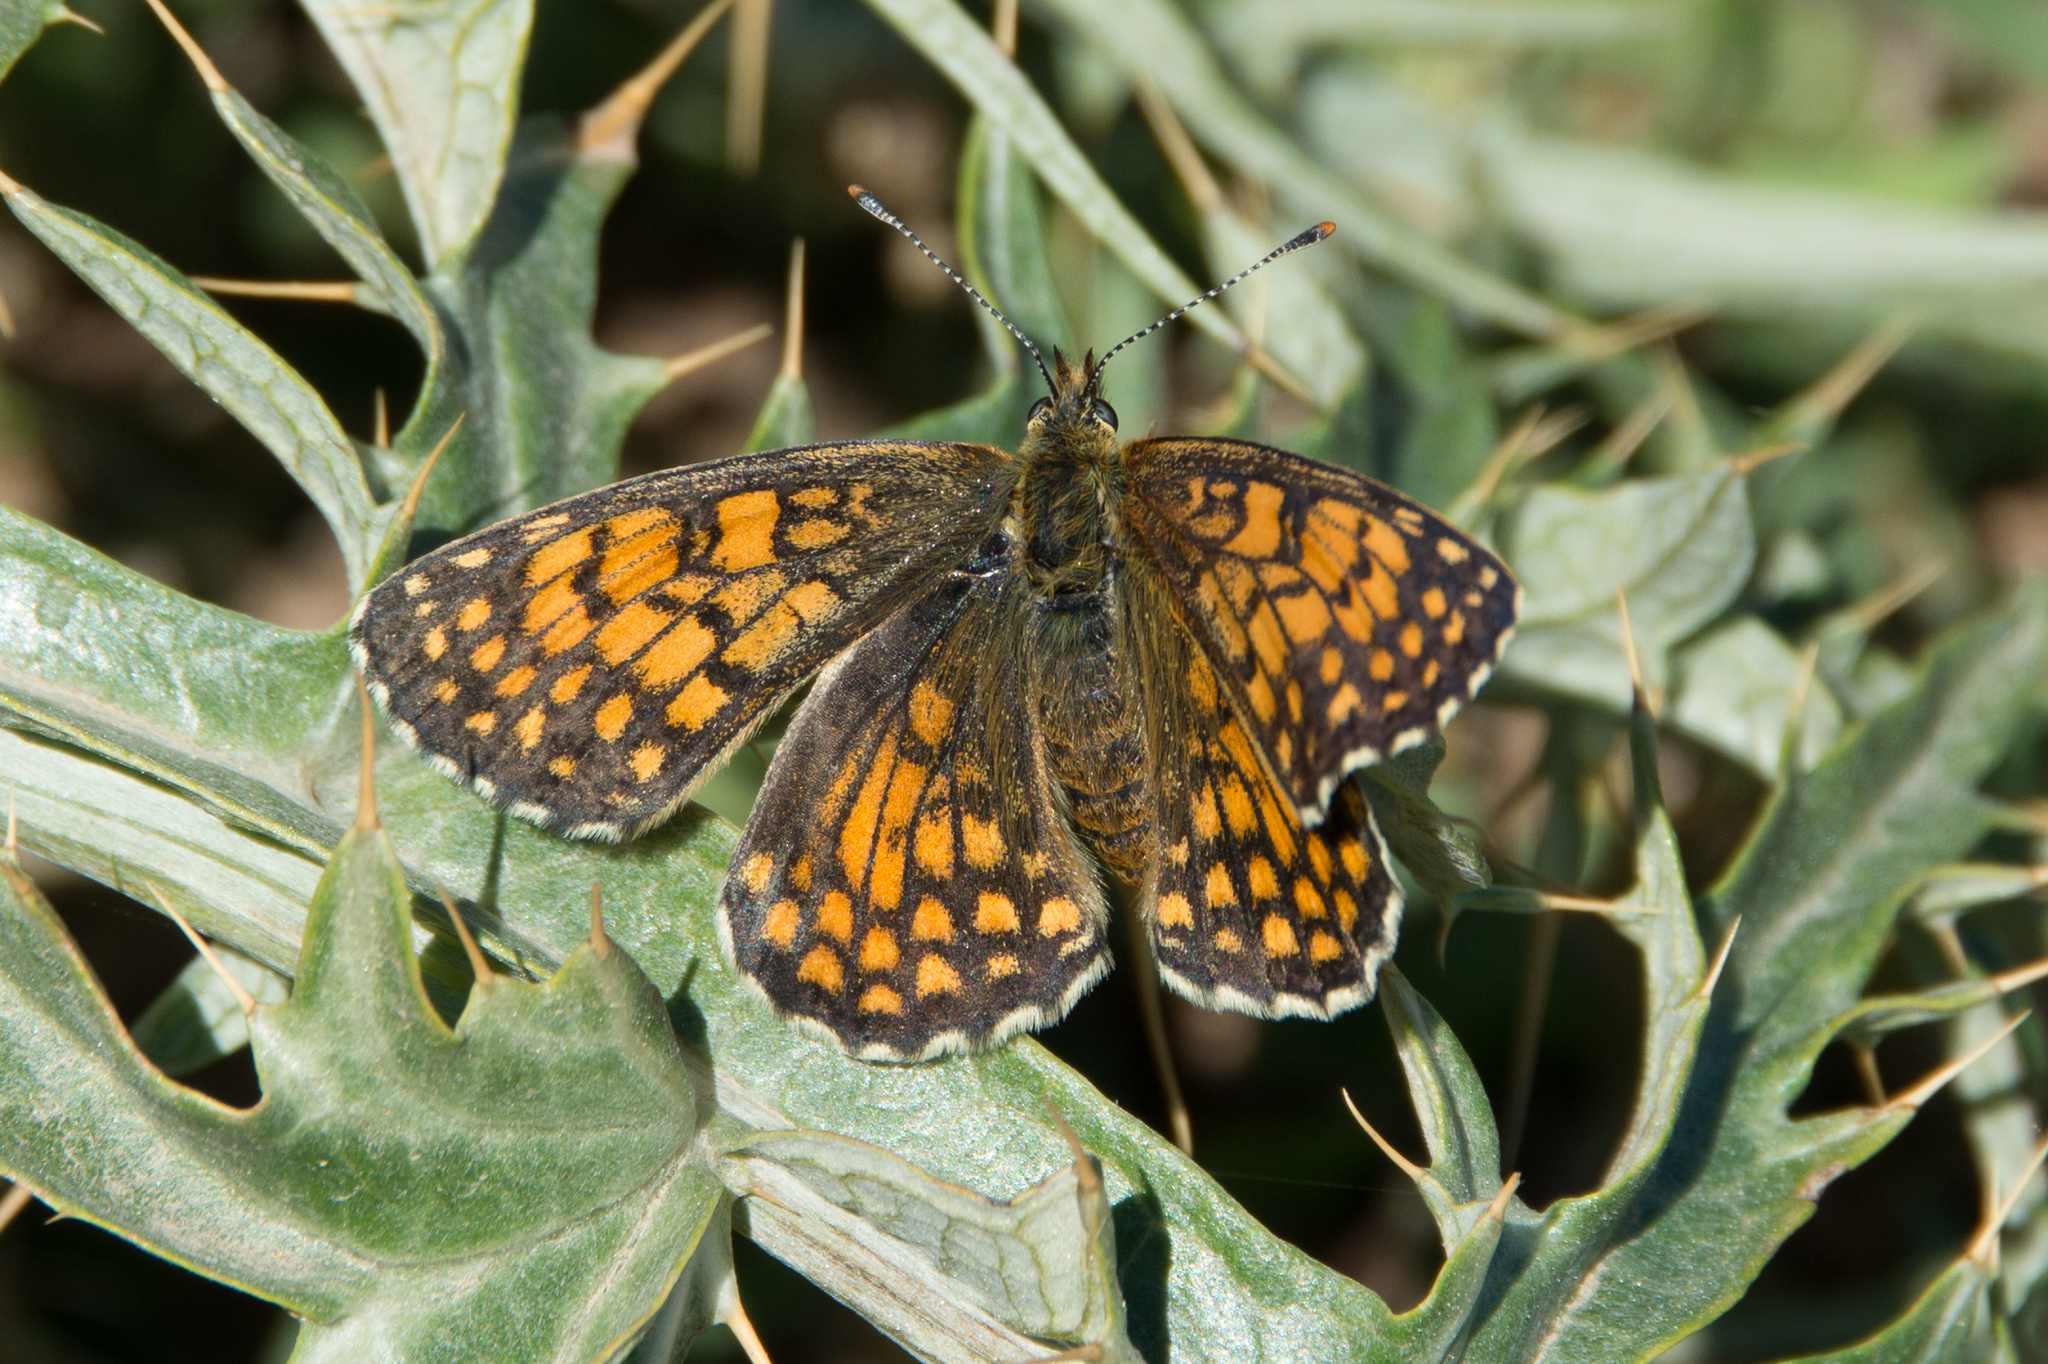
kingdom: Animalia
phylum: Arthropoda
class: Insecta
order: Lepidoptera
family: Nymphalidae
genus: Mellicta
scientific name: Mellicta athalia
